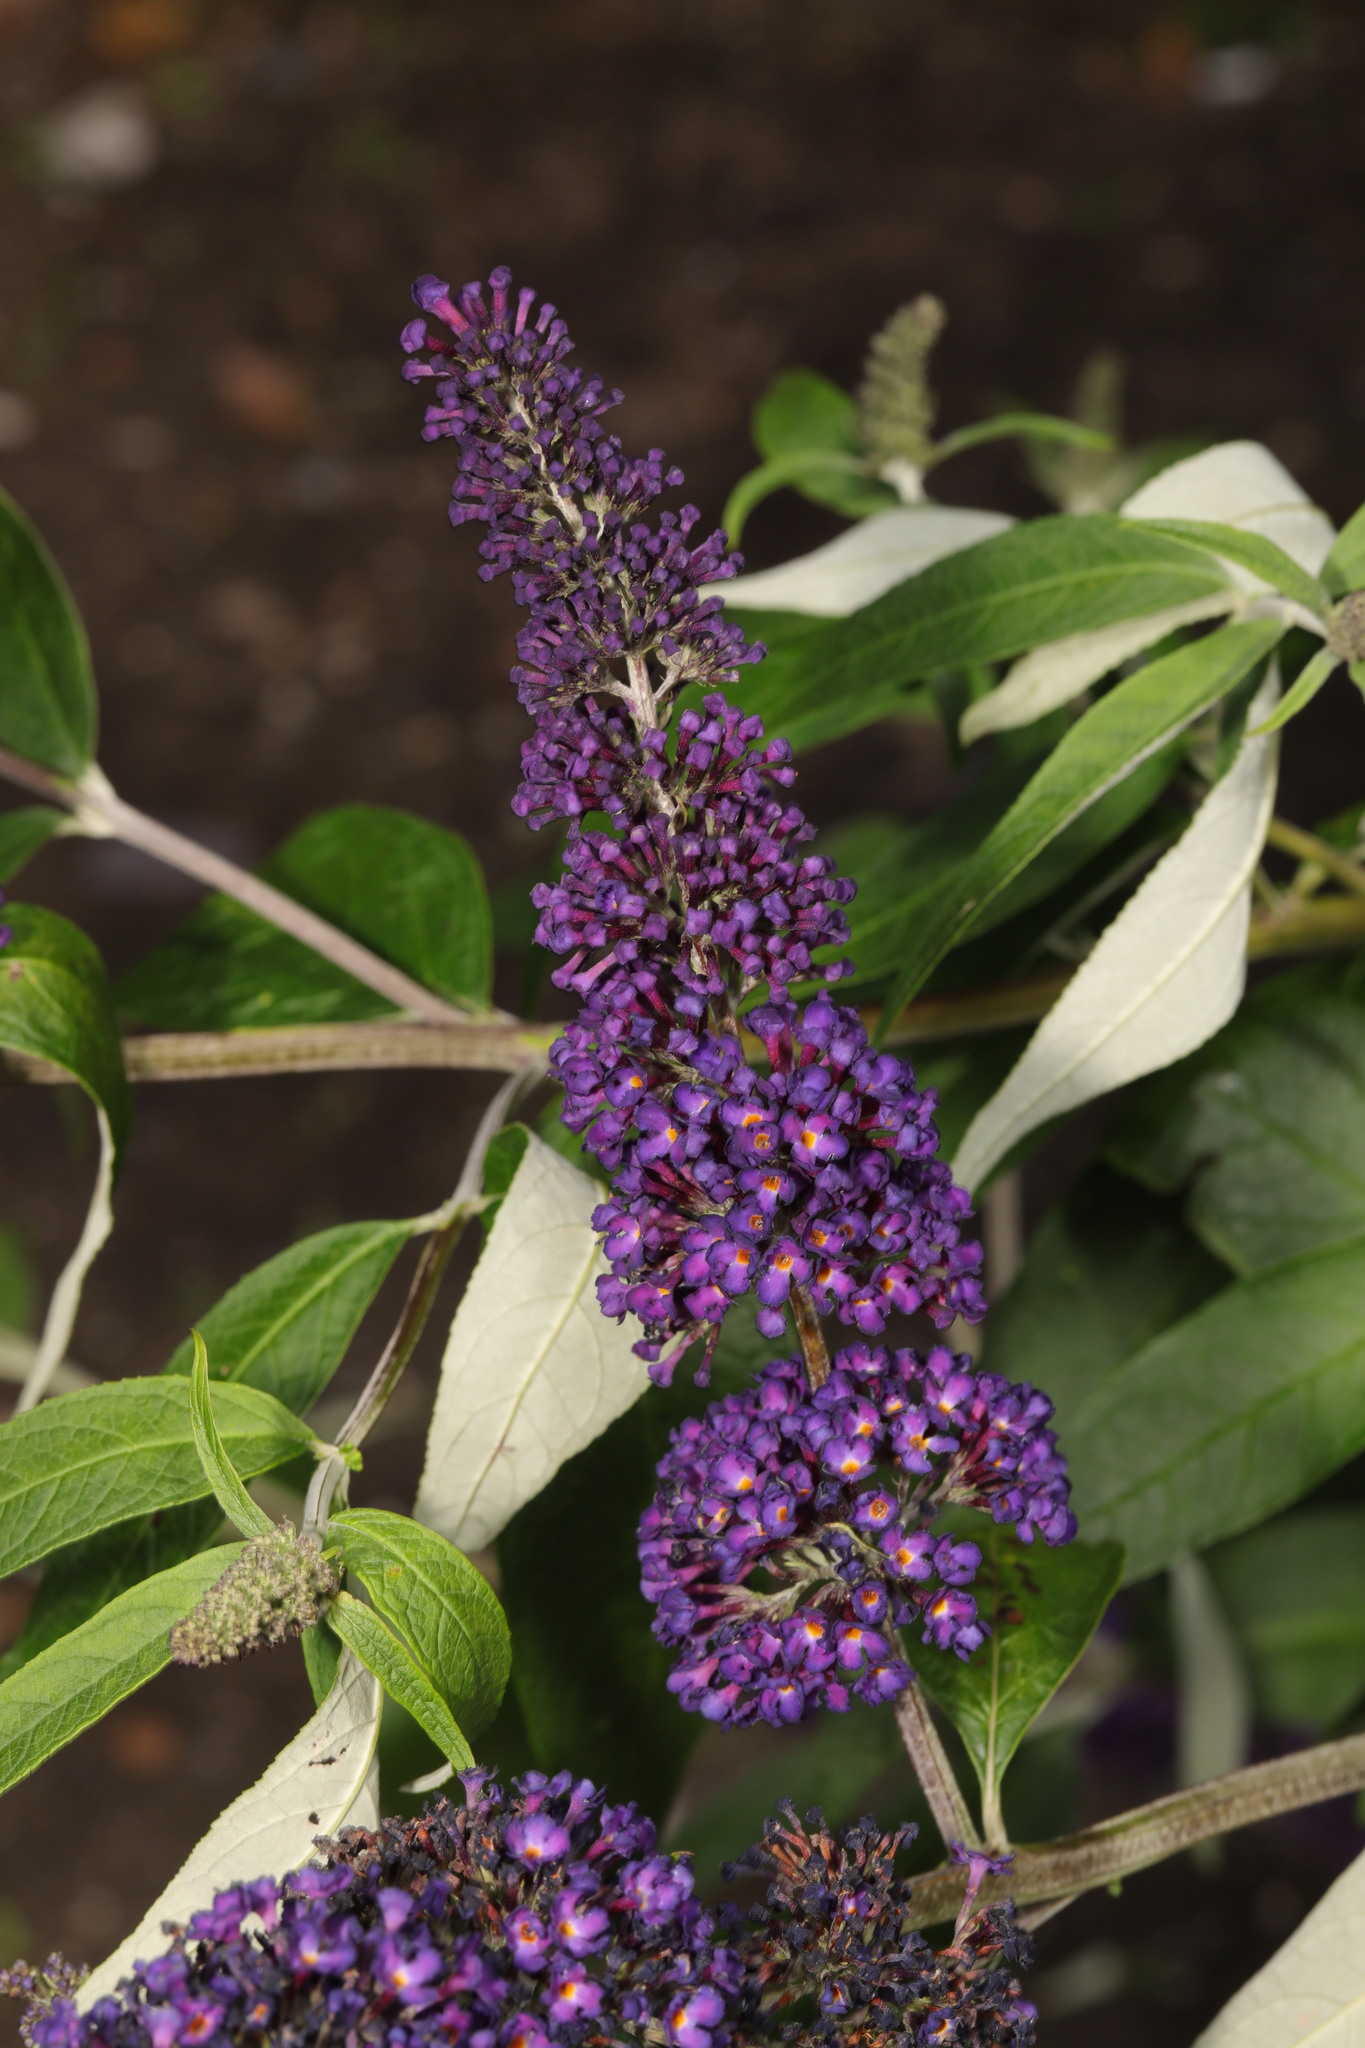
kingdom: Plantae
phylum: Tracheophyta
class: Magnoliopsida
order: Lamiales
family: Scrophulariaceae
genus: Buddleja
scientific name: Buddleja davidii
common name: Butterfly-bush
